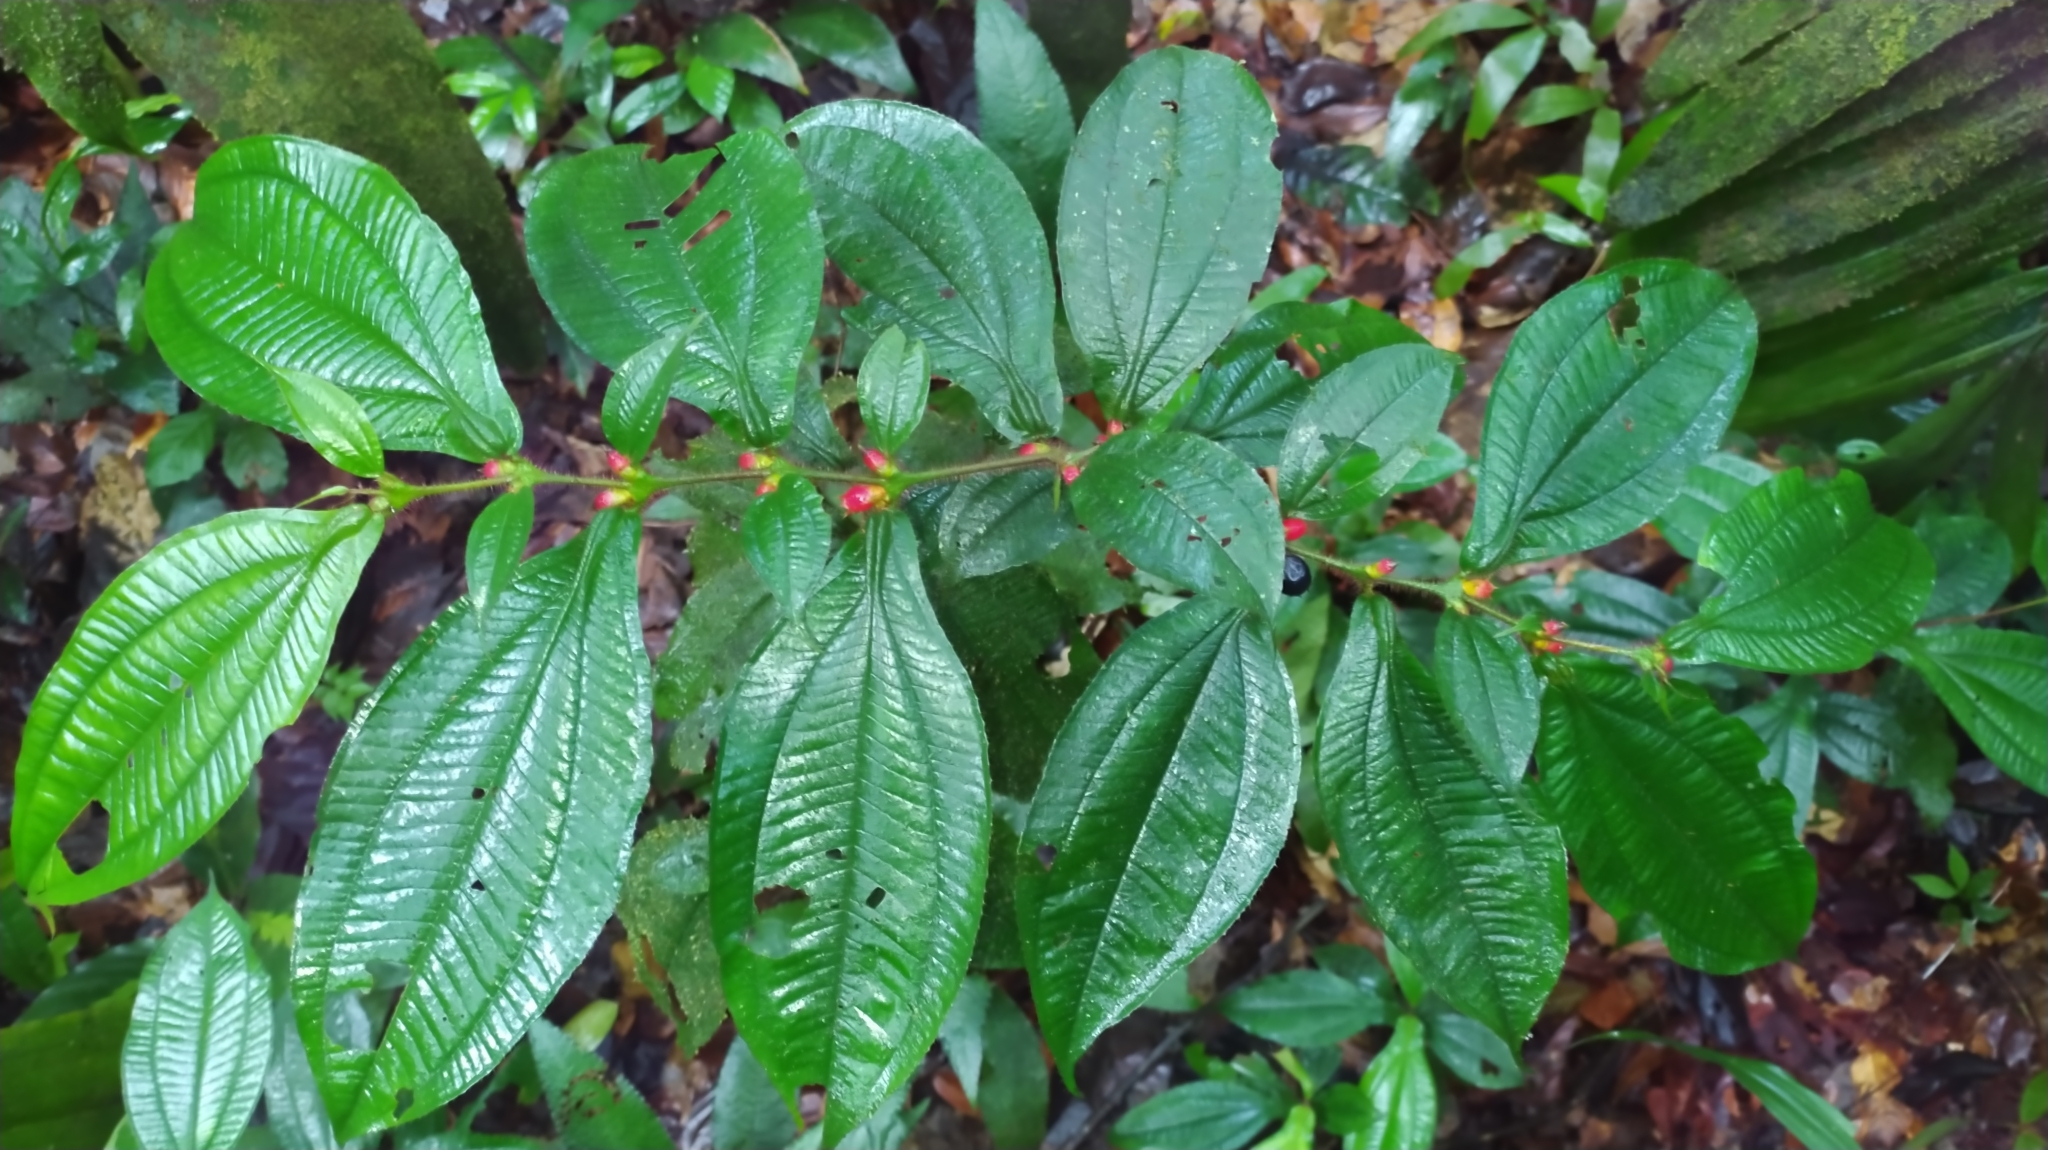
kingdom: Plantae
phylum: Tracheophyta
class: Magnoliopsida
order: Myrtales
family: Melastomataceae
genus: Miconia
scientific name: Miconia mayeta
